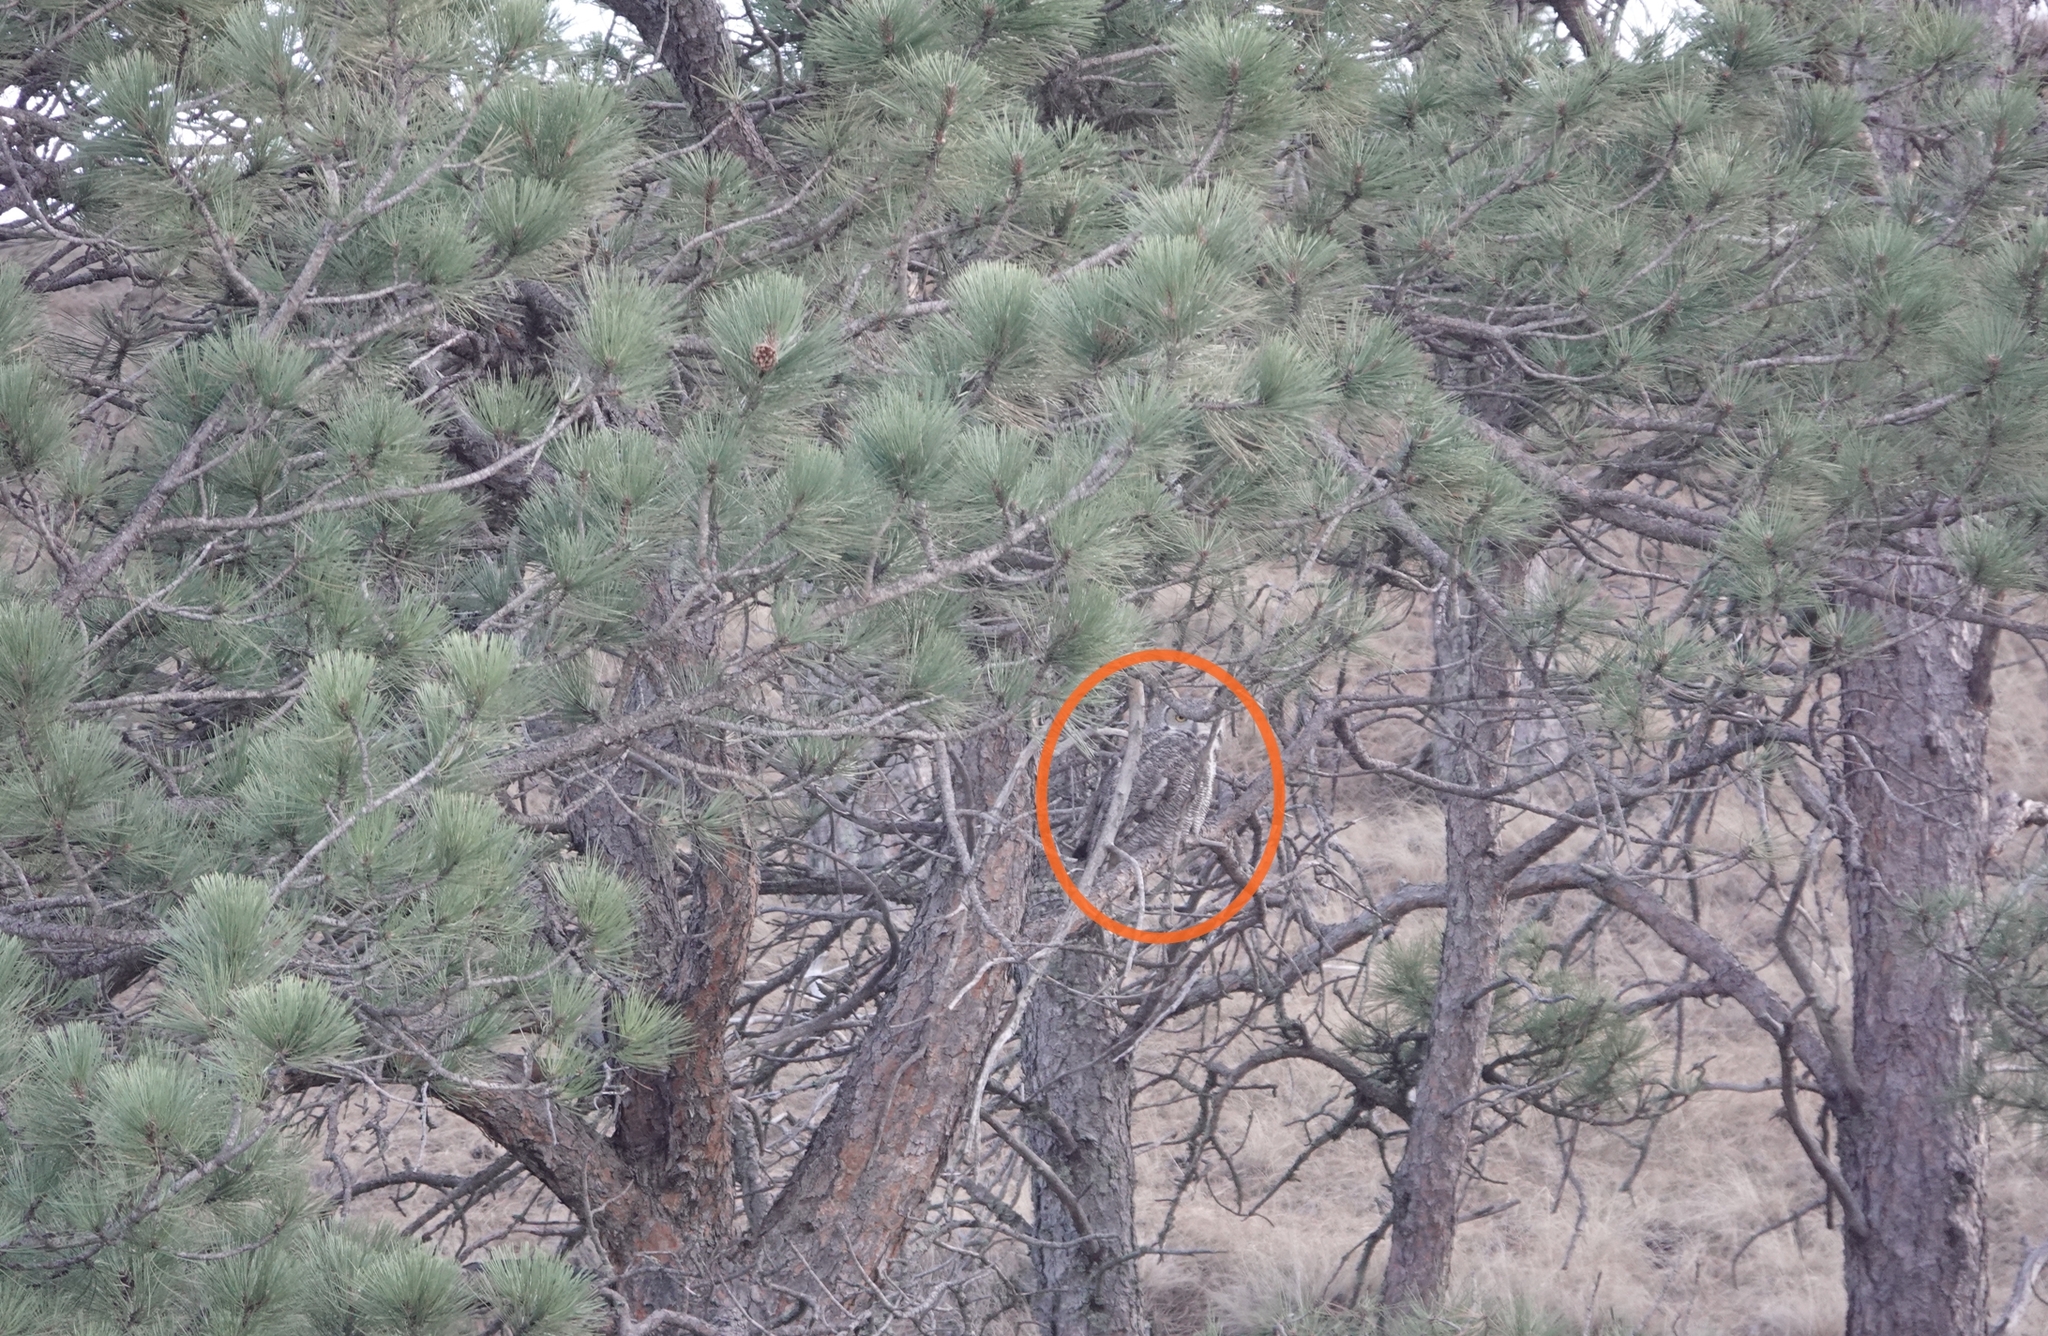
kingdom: Animalia
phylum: Chordata
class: Aves
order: Strigiformes
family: Strigidae
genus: Bubo
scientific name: Bubo virginianus
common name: Great horned owl
